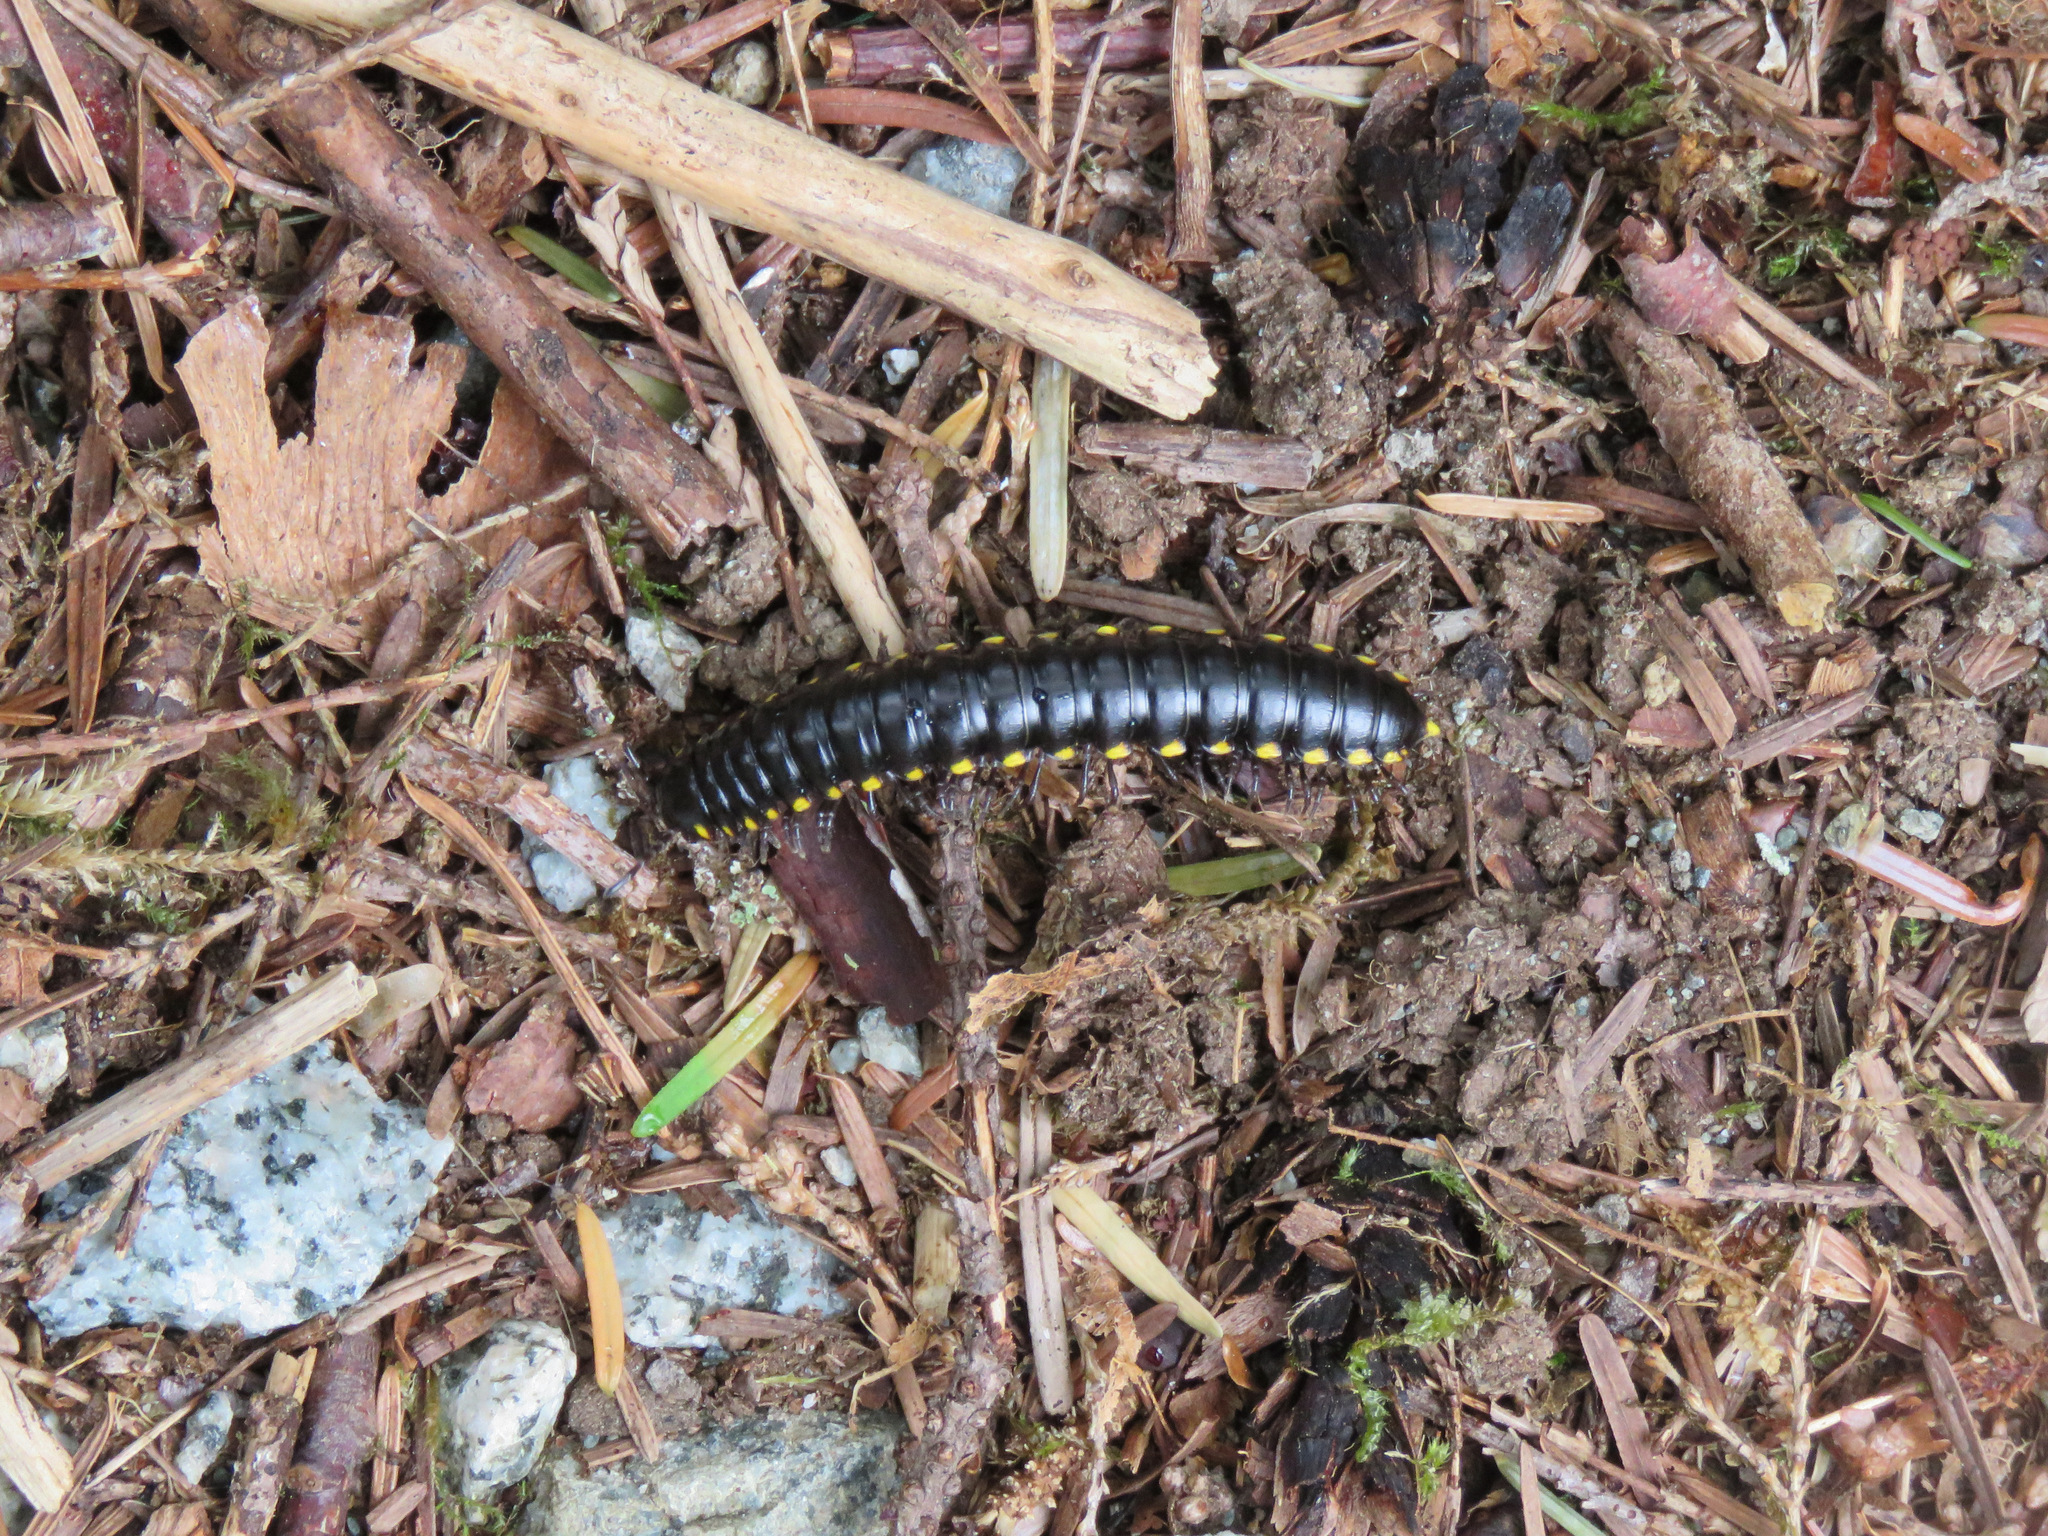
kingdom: Animalia
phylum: Arthropoda
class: Diplopoda
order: Polydesmida
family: Xystodesmidae
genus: Harpaphe
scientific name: Harpaphe haydeniana
